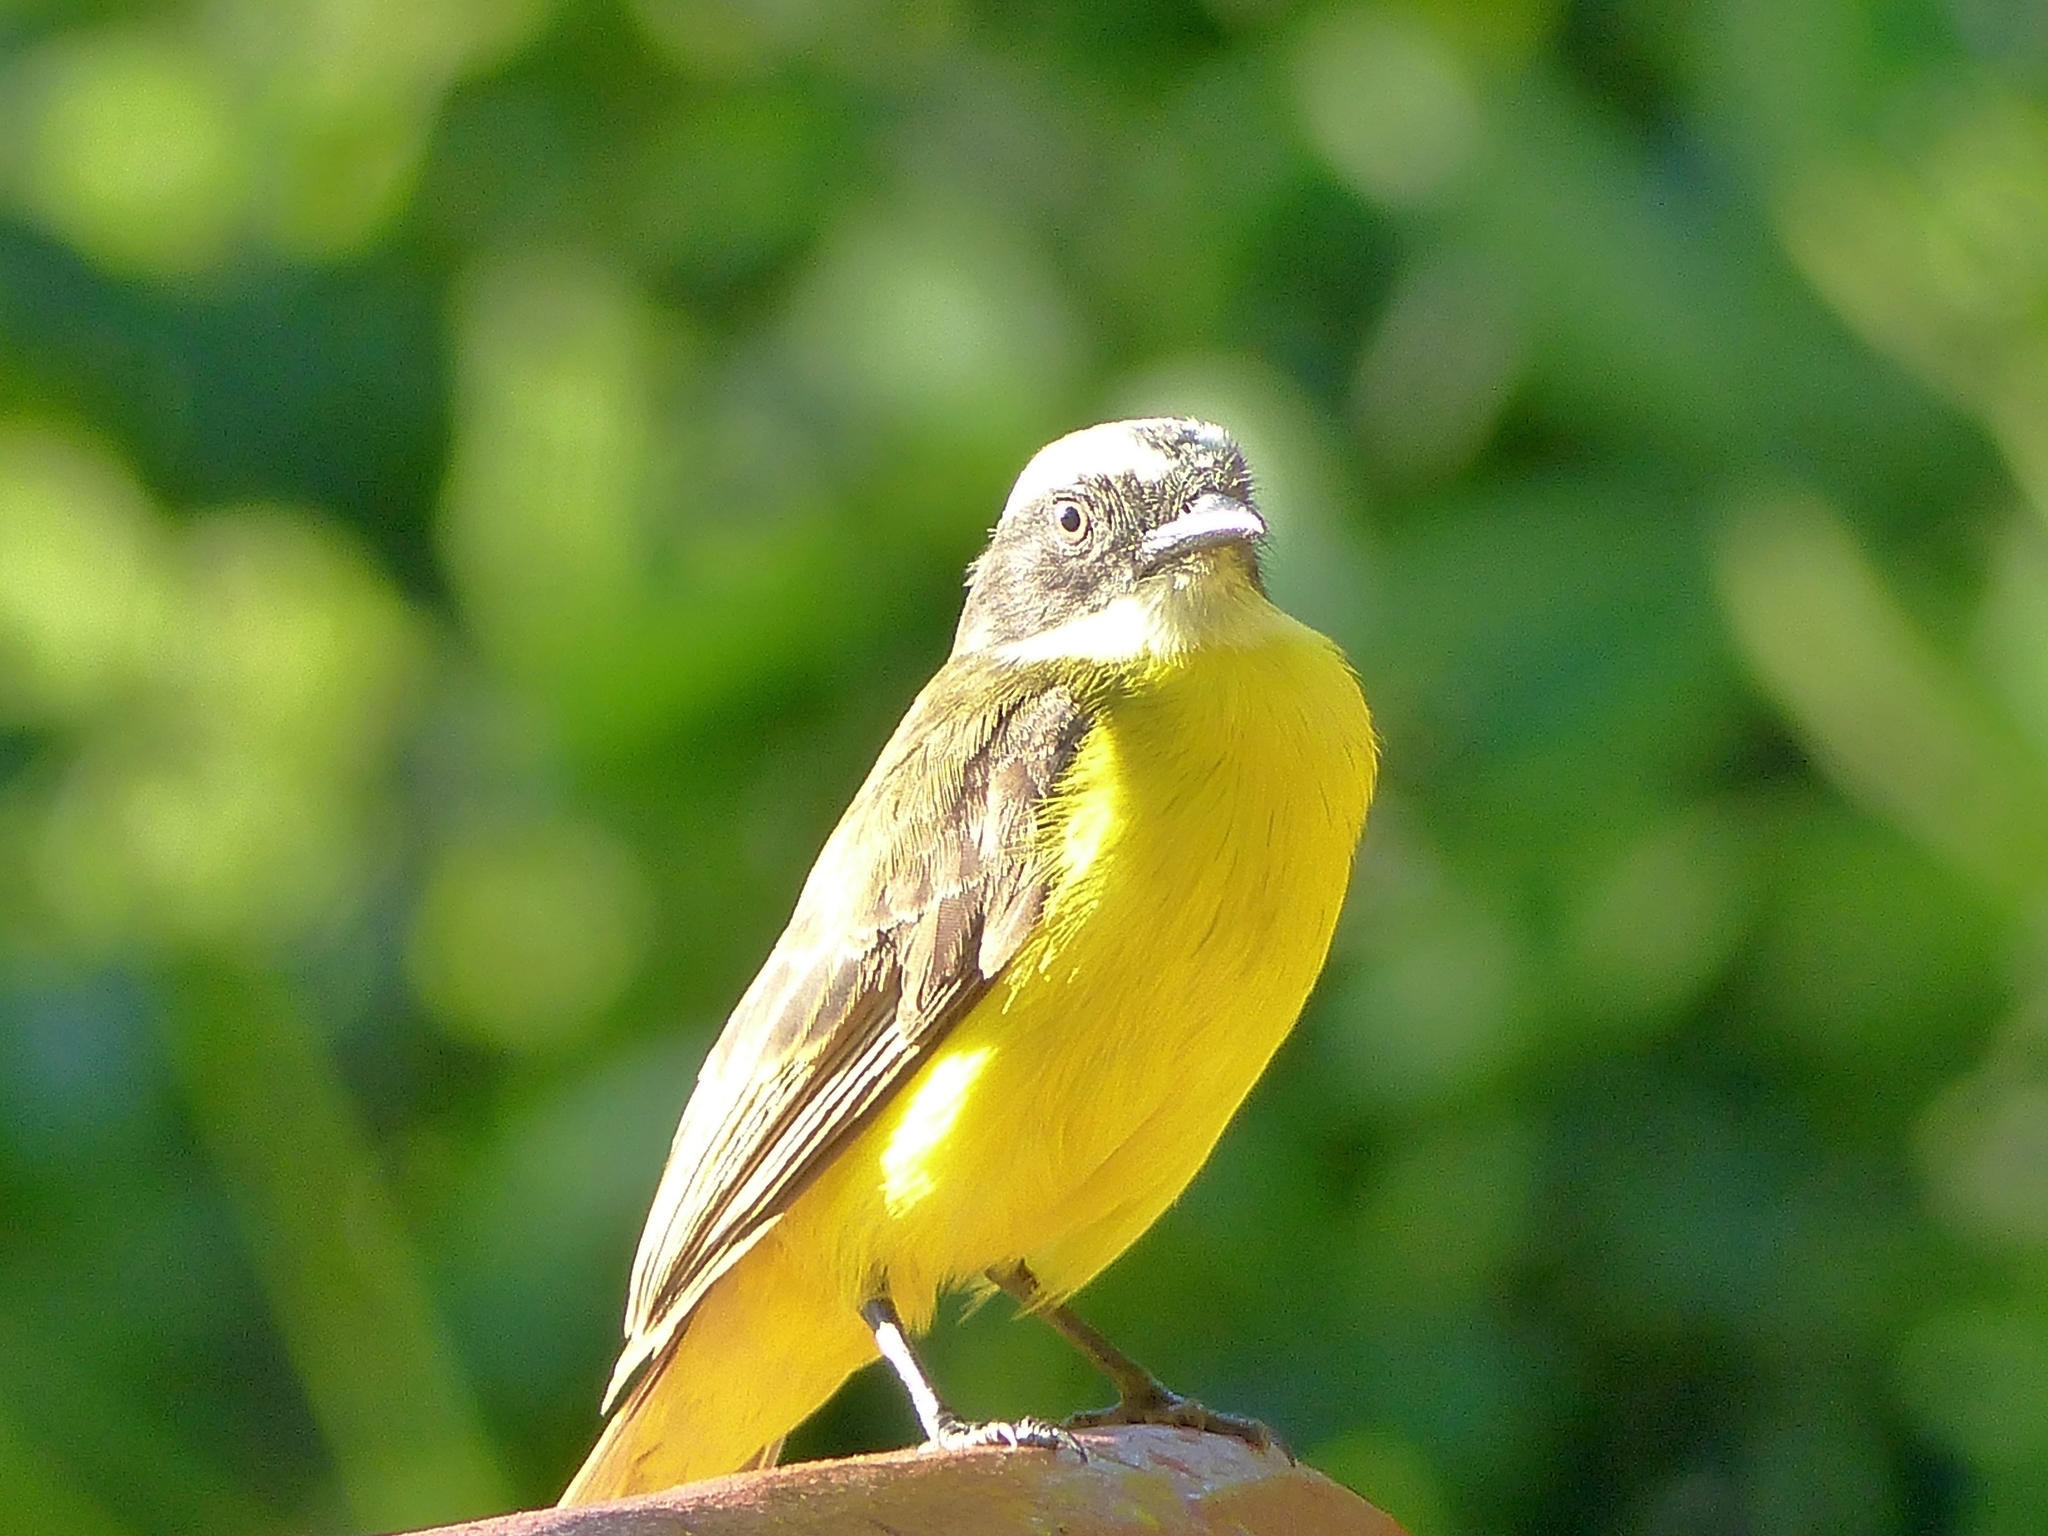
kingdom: Animalia
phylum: Chordata
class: Aves
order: Passeriformes
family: Tyrannidae
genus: Myiozetetes
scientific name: Myiozetetes similis
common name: Social flycatcher
